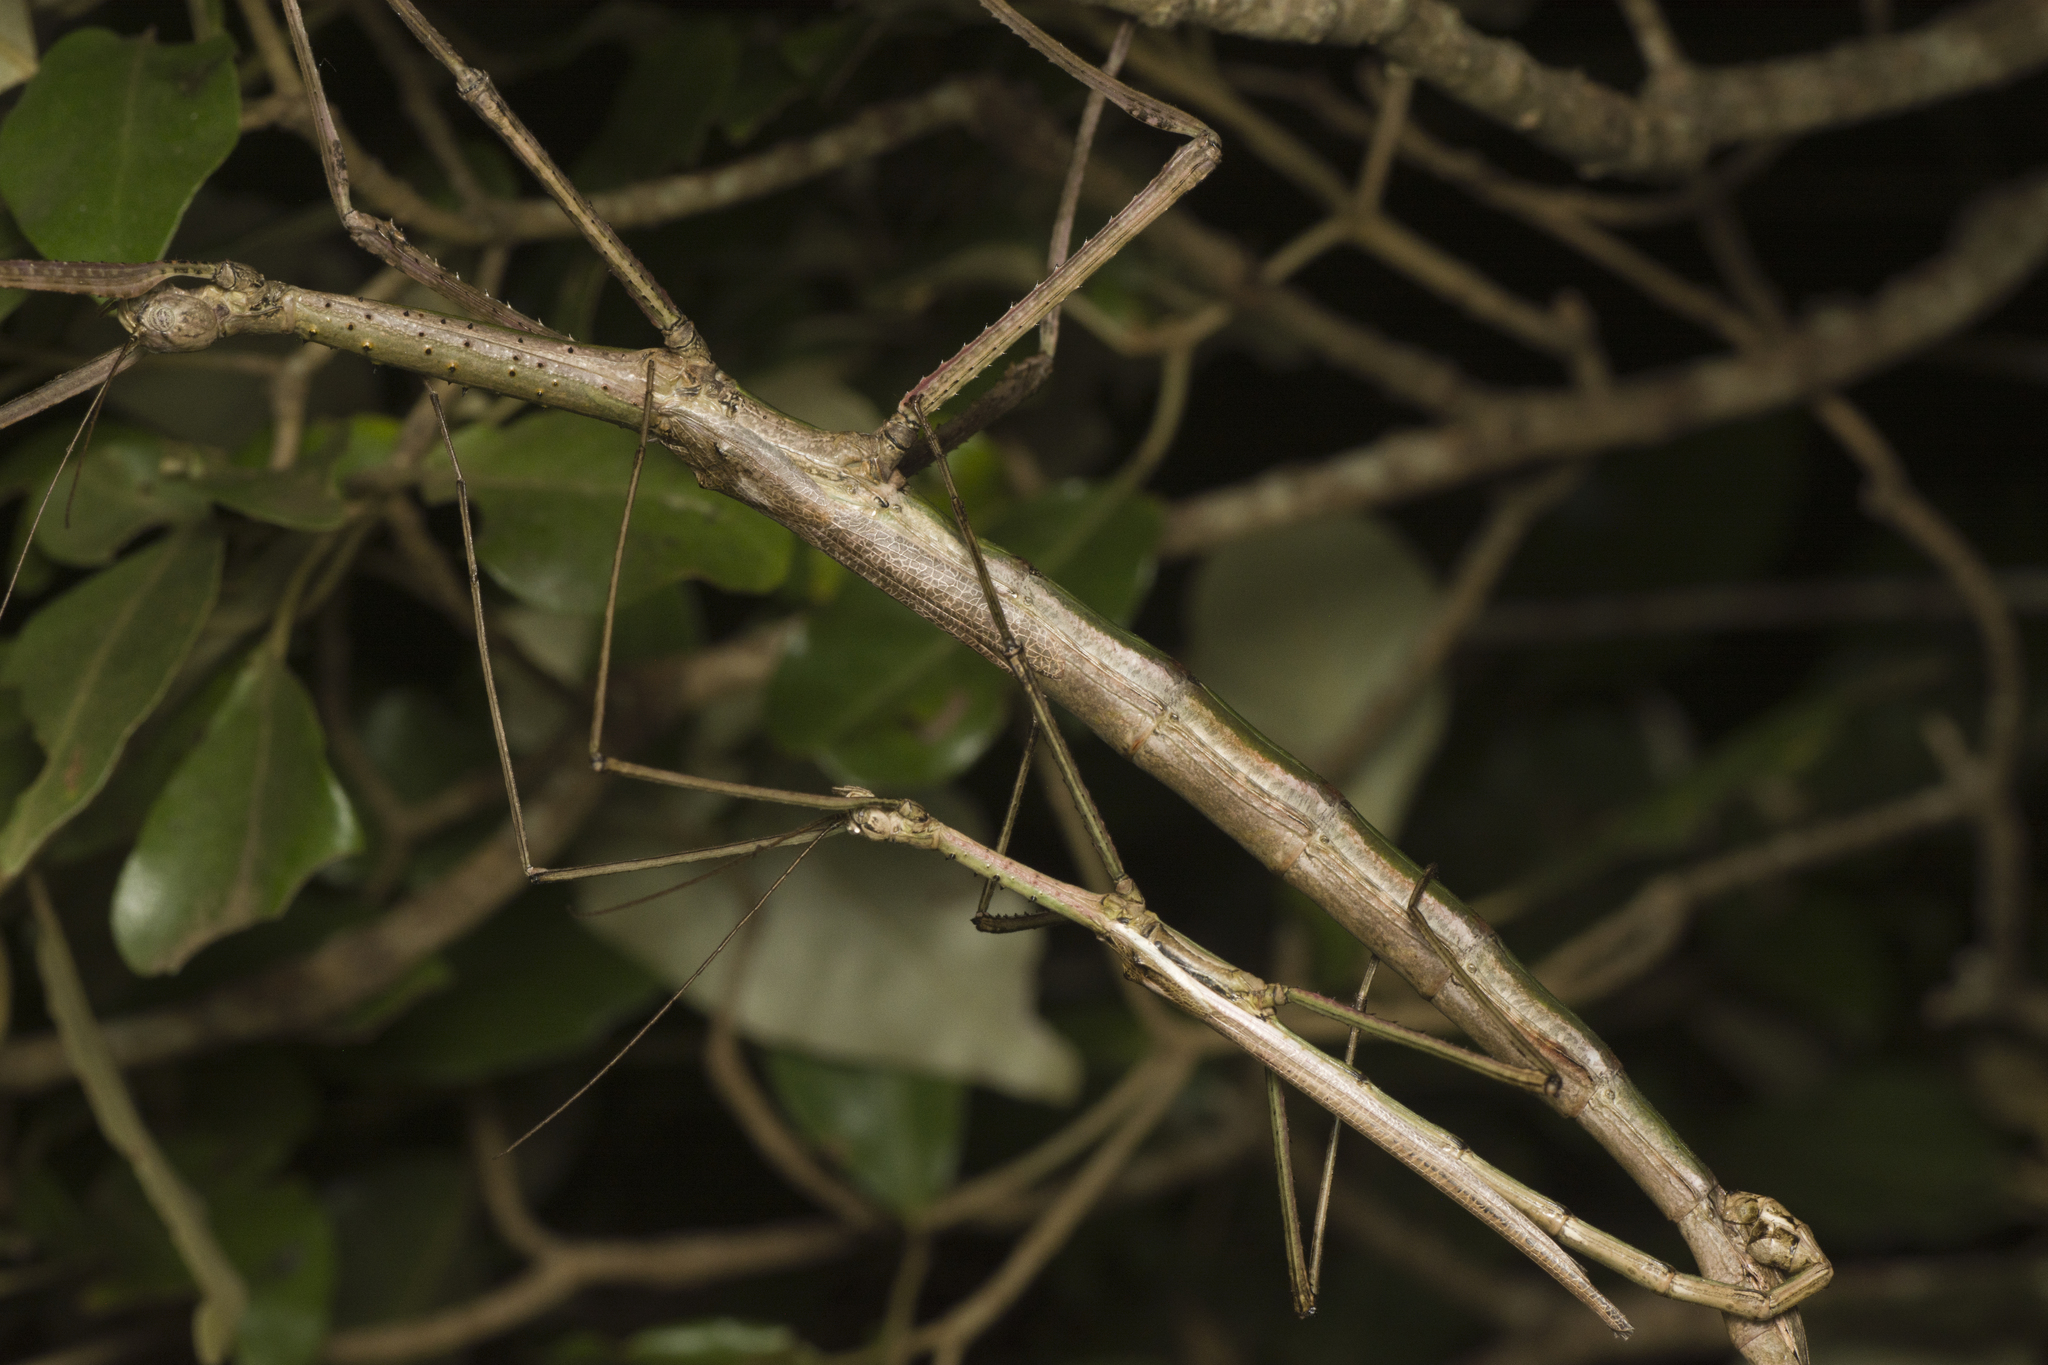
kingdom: Animalia
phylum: Arthropoda
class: Insecta
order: Phasmida
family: Phasmatidae
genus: Anchiale
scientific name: Anchiale briareus
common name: Strong stick insect
